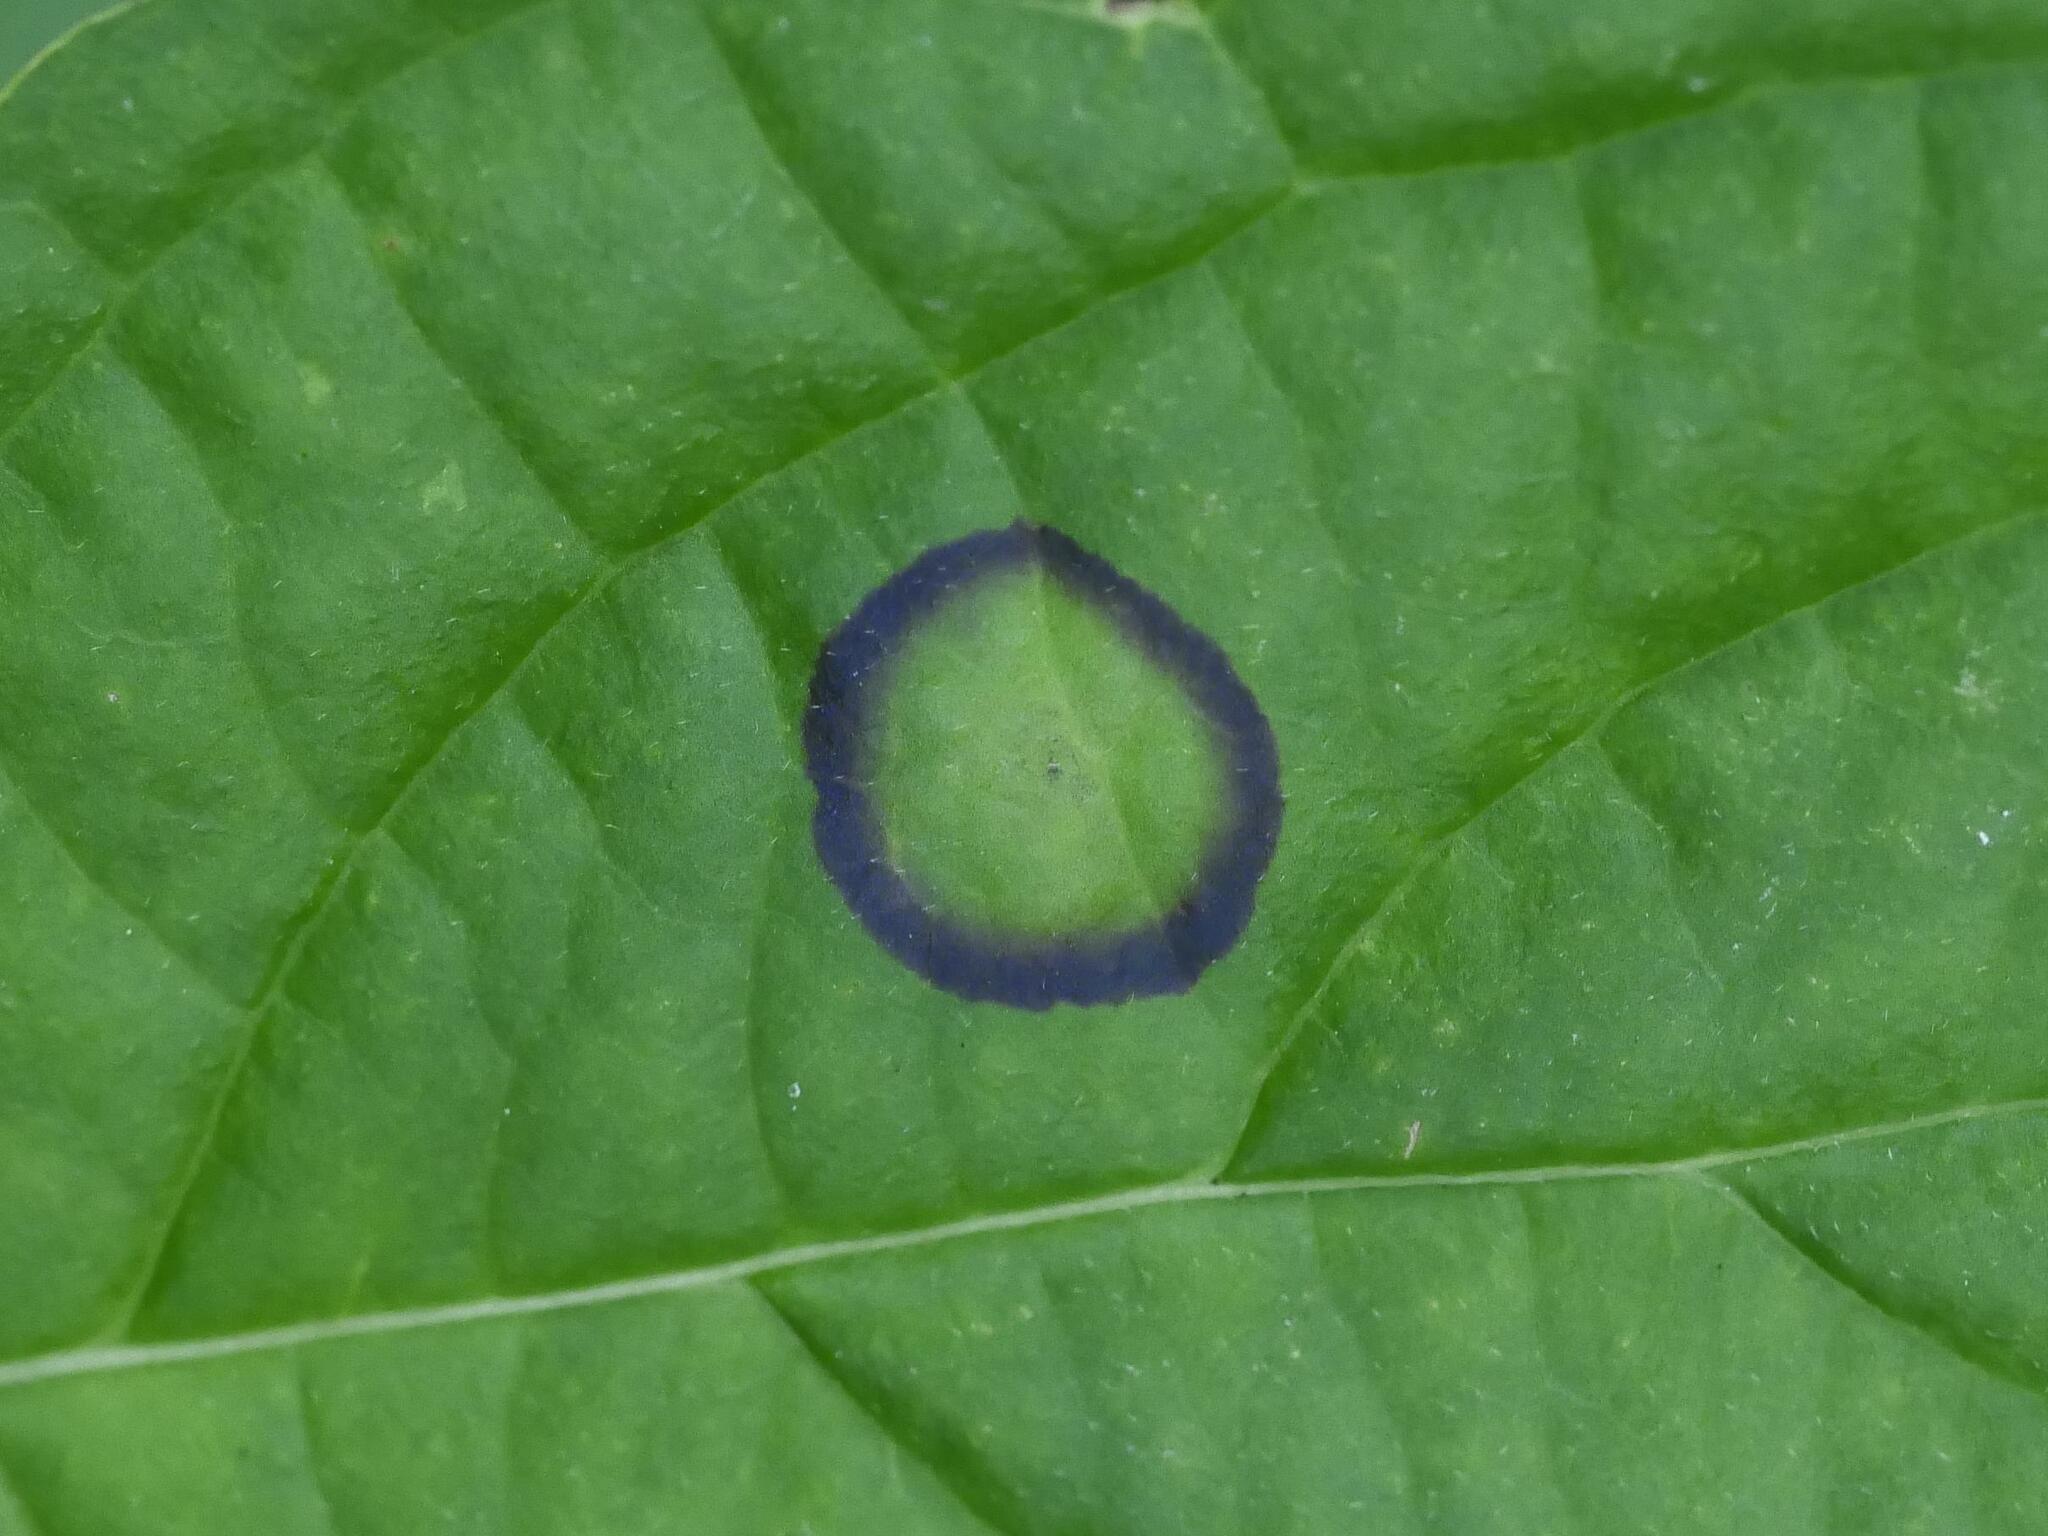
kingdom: Animalia
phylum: Arthropoda
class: Insecta
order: Diptera
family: Cecidomyiidae
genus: Parallelodiplosis
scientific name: Parallelodiplosis subtruncata
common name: Dogwood eyespot gall midge
